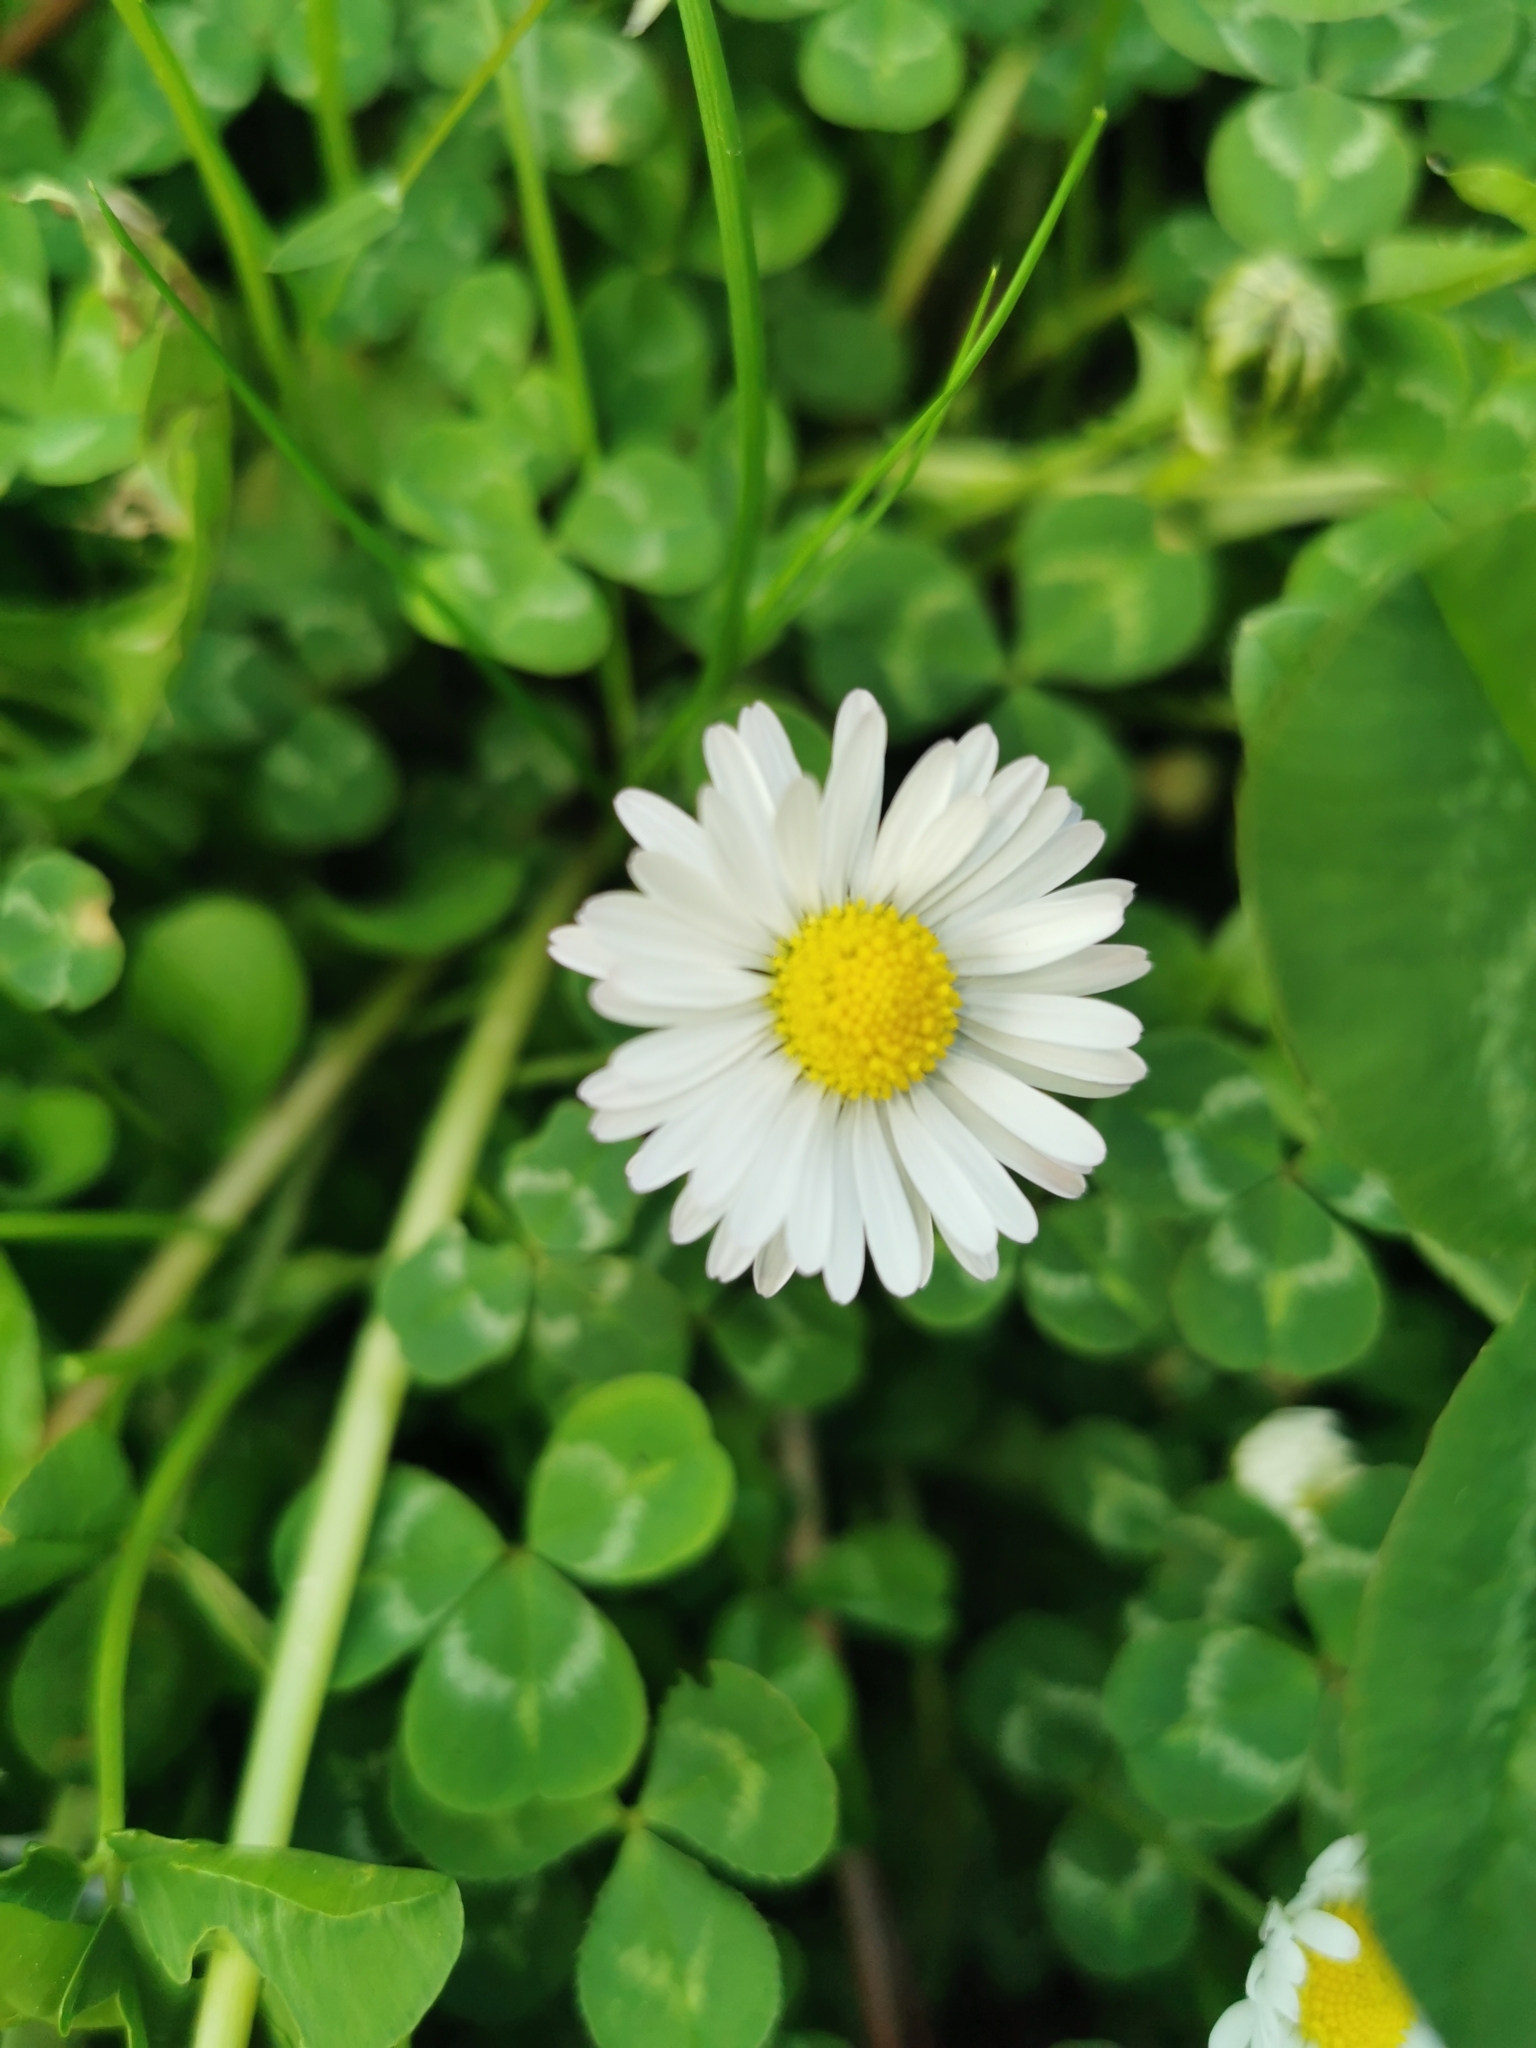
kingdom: Plantae
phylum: Tracheophyta
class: Magnoliopsida
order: Asterales
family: Asteraceae
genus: Bellis
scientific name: Bellis perennis
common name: Lawndaisy
